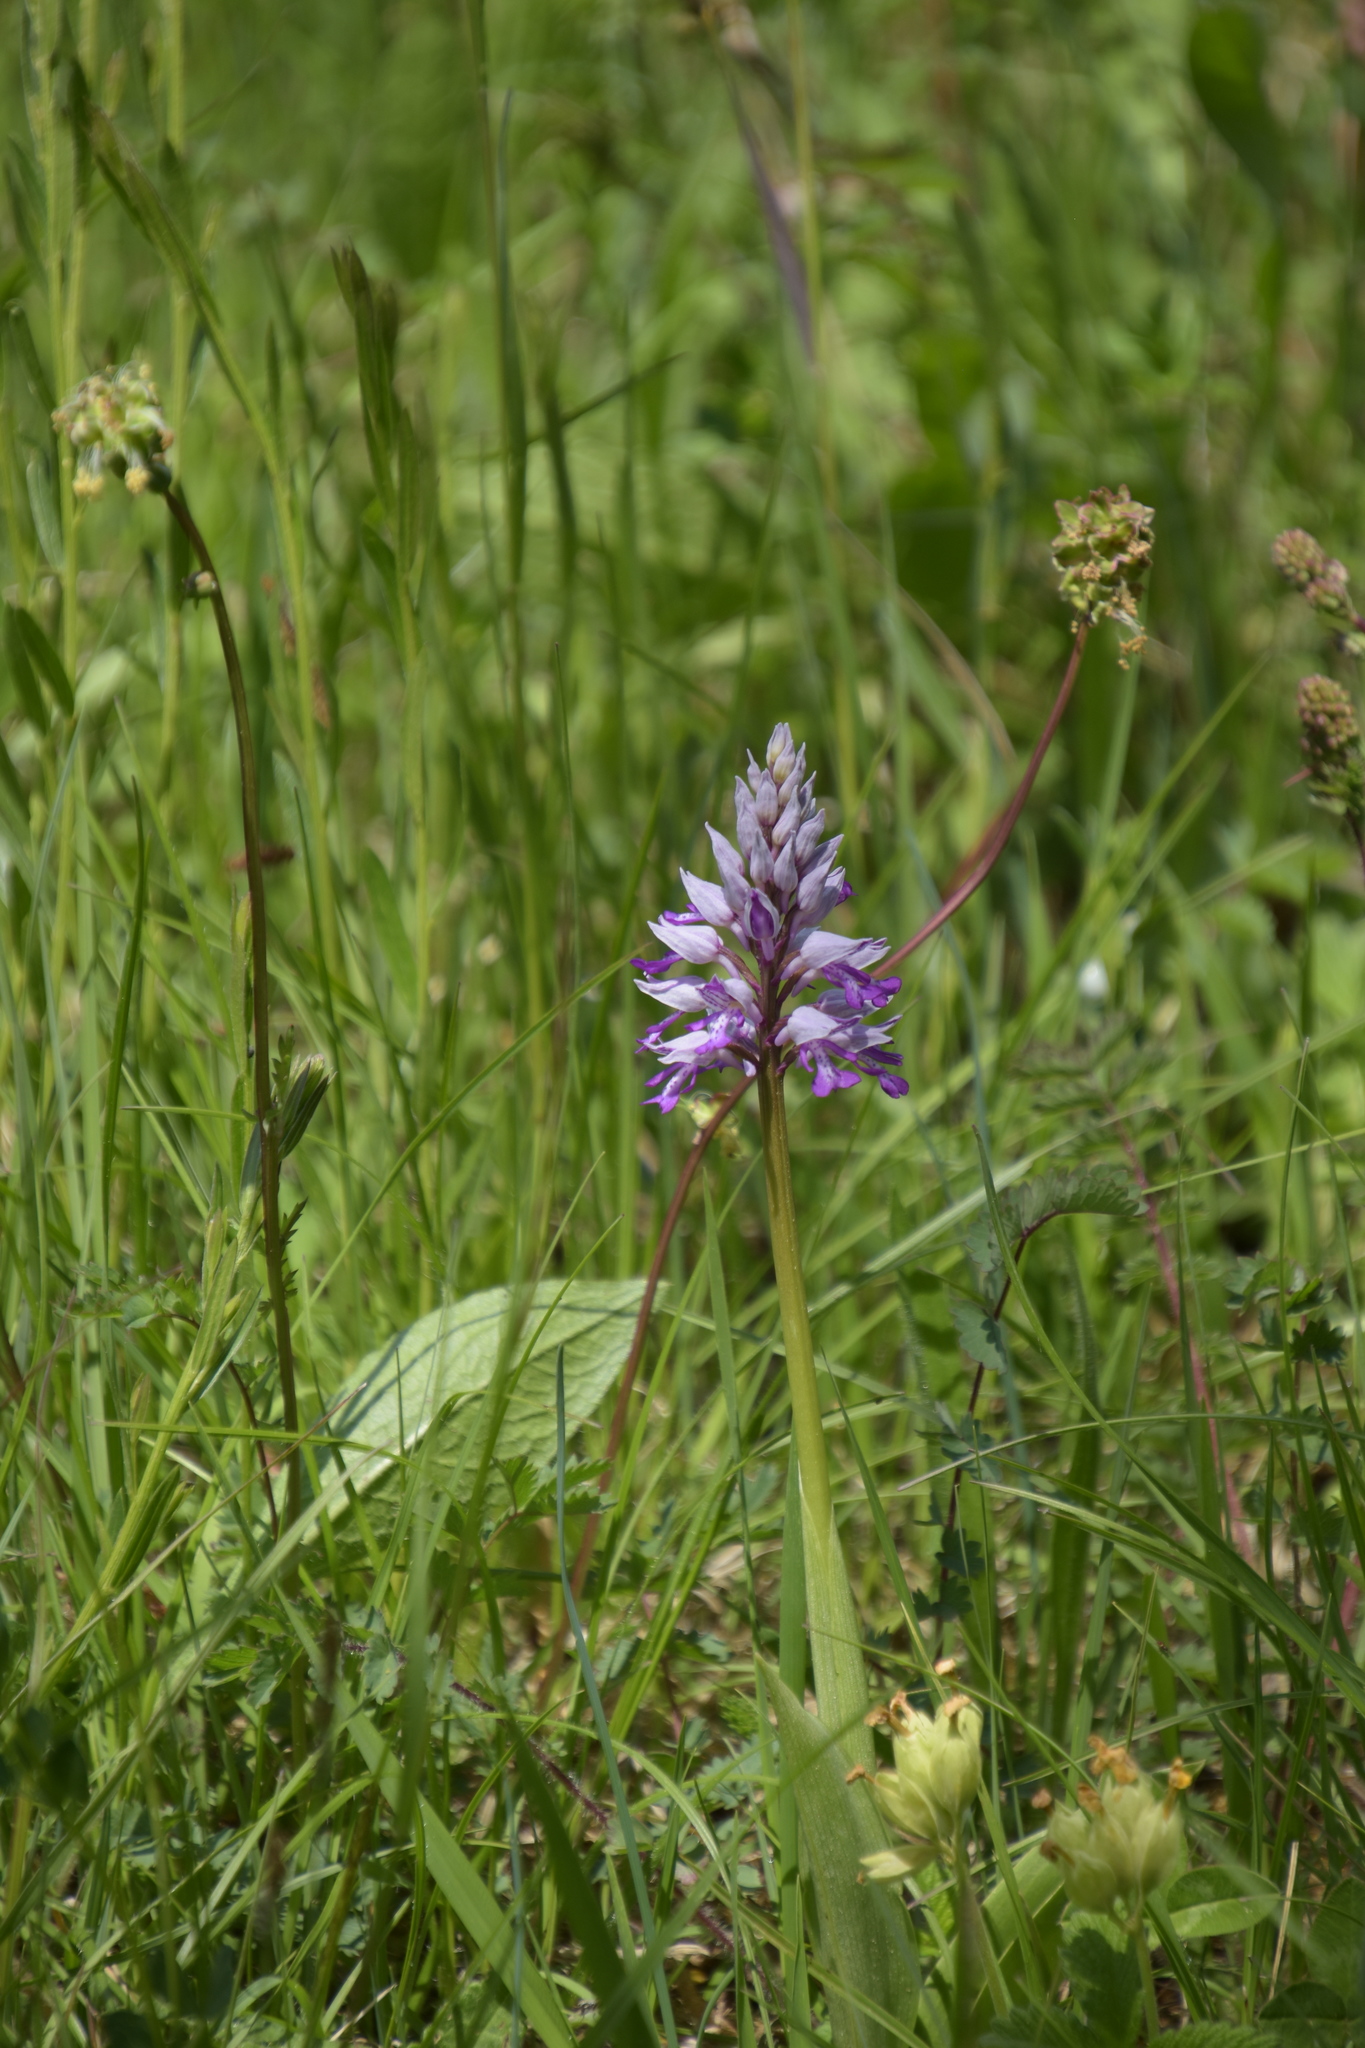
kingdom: Plantae
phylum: Tracheophyta
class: Liliopsida
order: Asparagales
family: Orchidaceae
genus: Orchis
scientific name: Orchis militaris
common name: Military orchid
